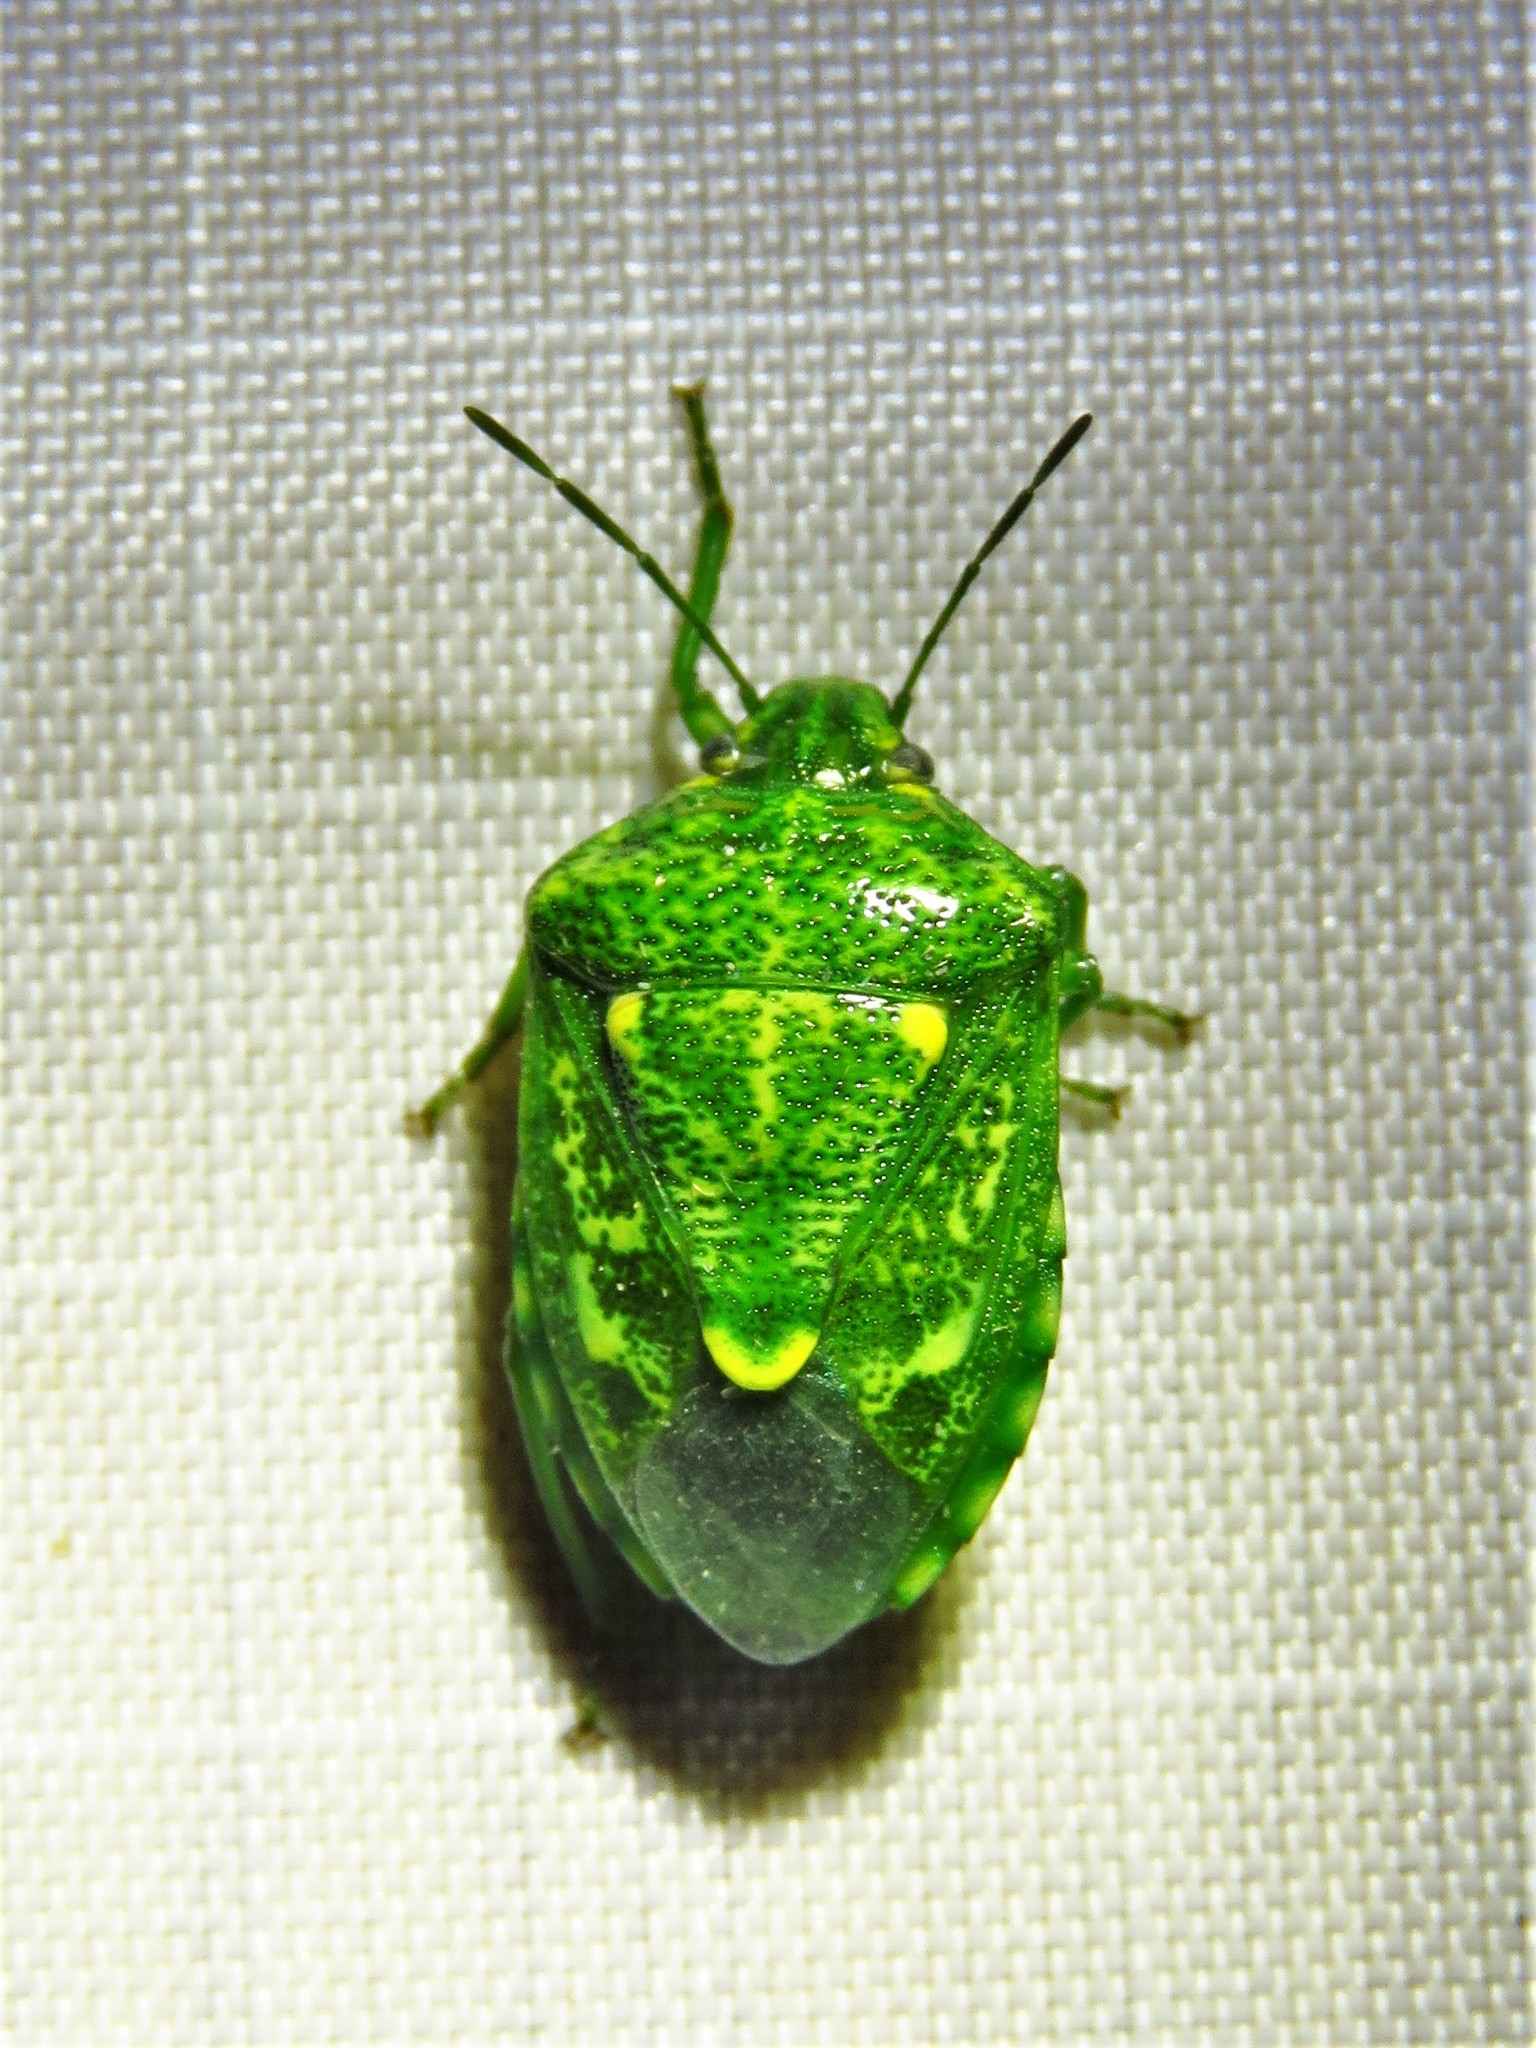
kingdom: Animalia
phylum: Arthropoda
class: Insecta
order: Hemiptera
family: Pentatomidae
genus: Banasa
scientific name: Banasa euchlora
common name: Cedar berry bug
